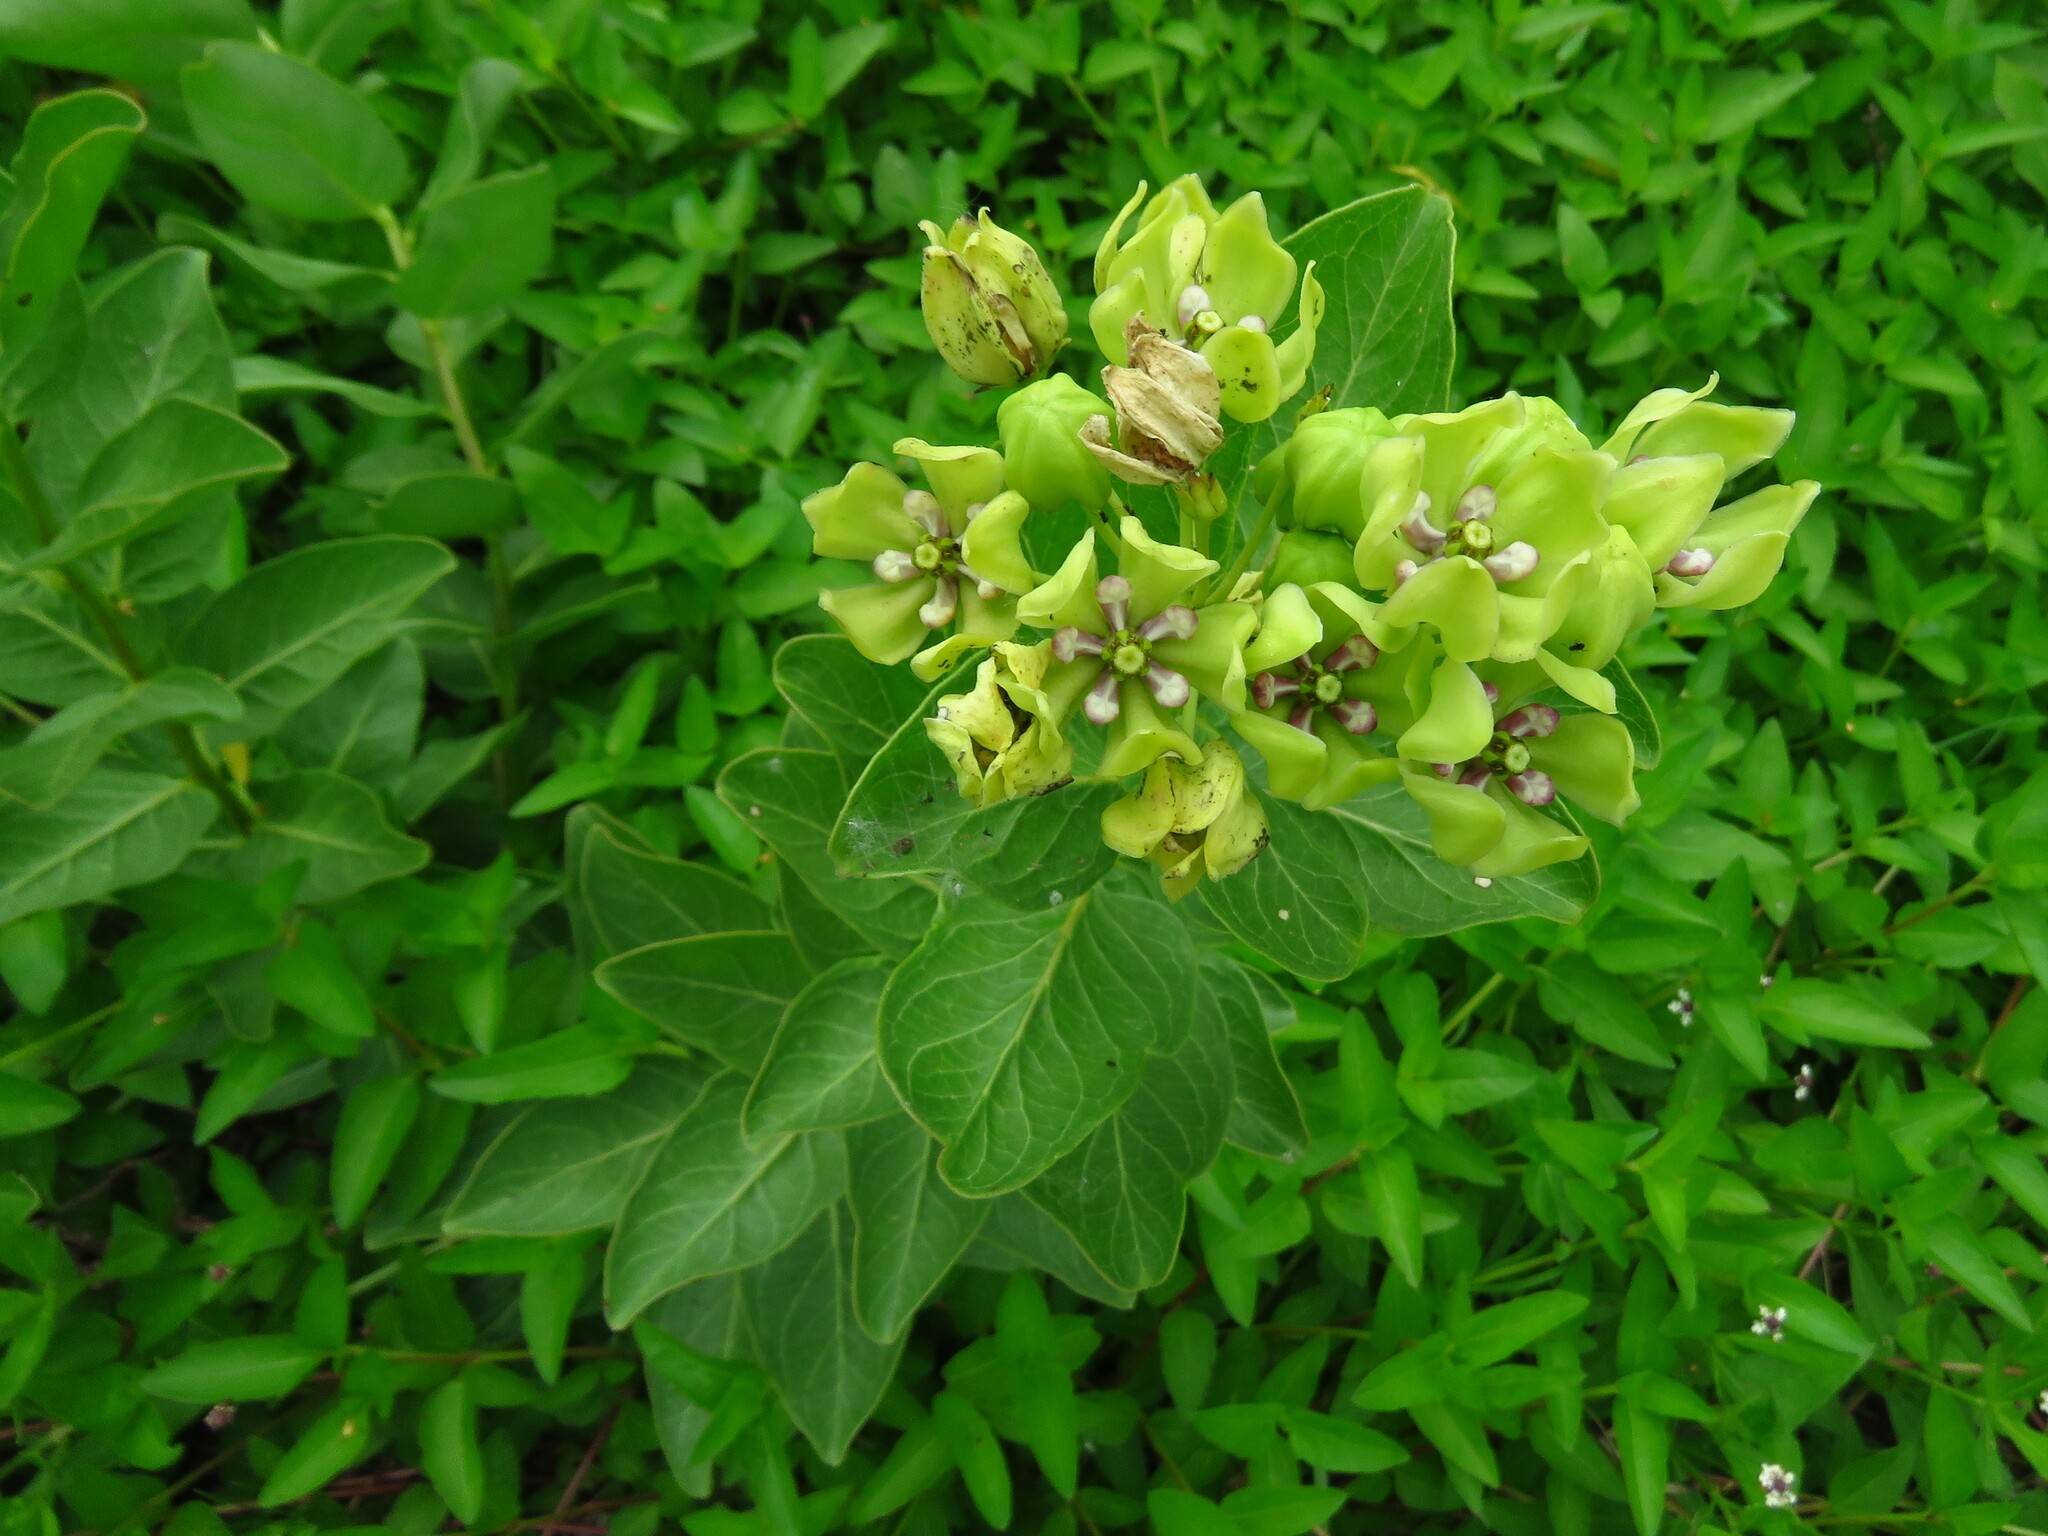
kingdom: Plantae
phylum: Tracheophyta
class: Magnoliopsida
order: Gentianales
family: Apocynaceae
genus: Asclepias
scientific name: Asclepias viridis
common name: Antelope-horns
